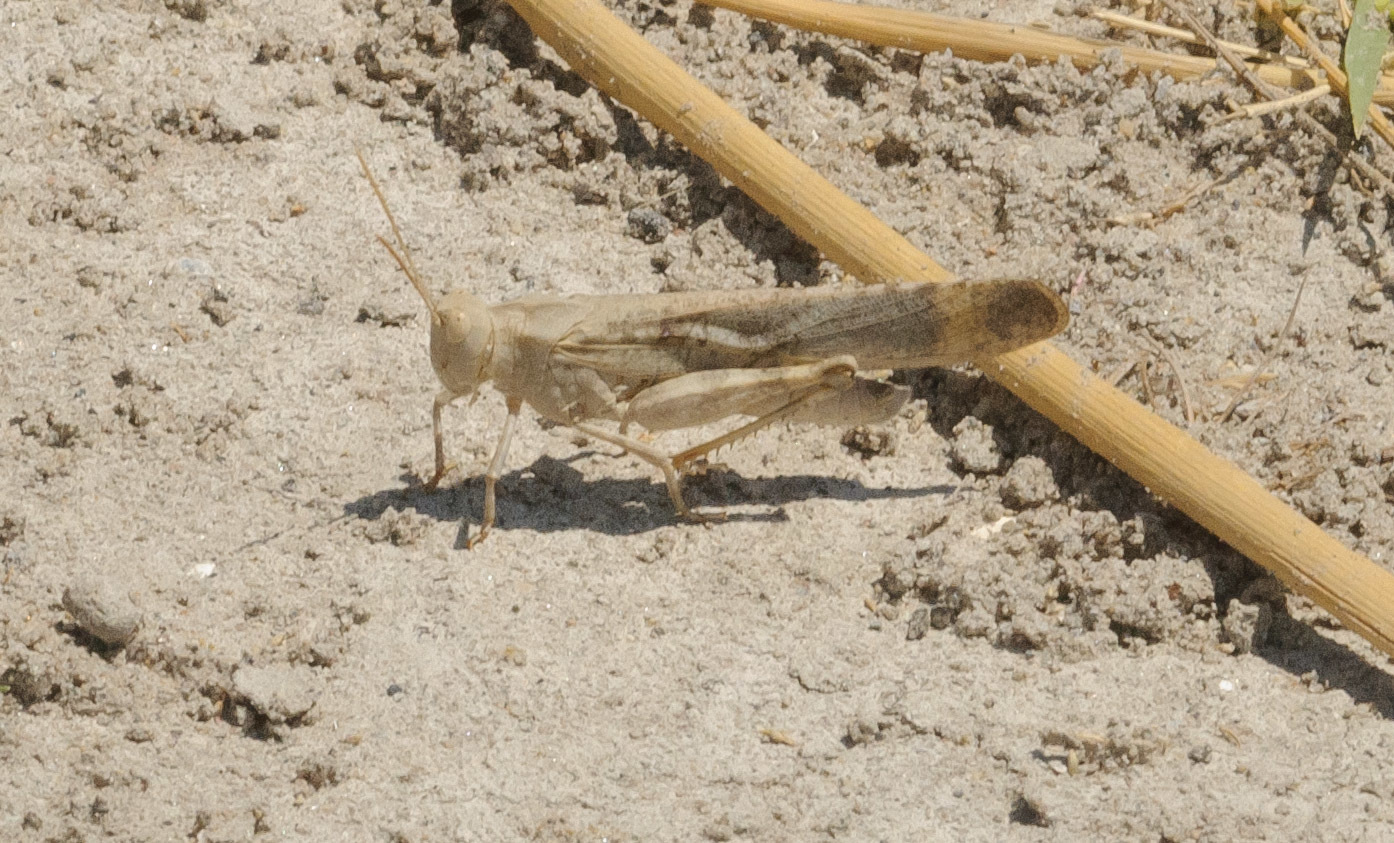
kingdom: Animalia
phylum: Arthropoda
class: Insecta
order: Orthoptera
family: Acrididae
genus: Dissosteira
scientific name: Dissosteira carolina
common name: Carolina grasshopper
